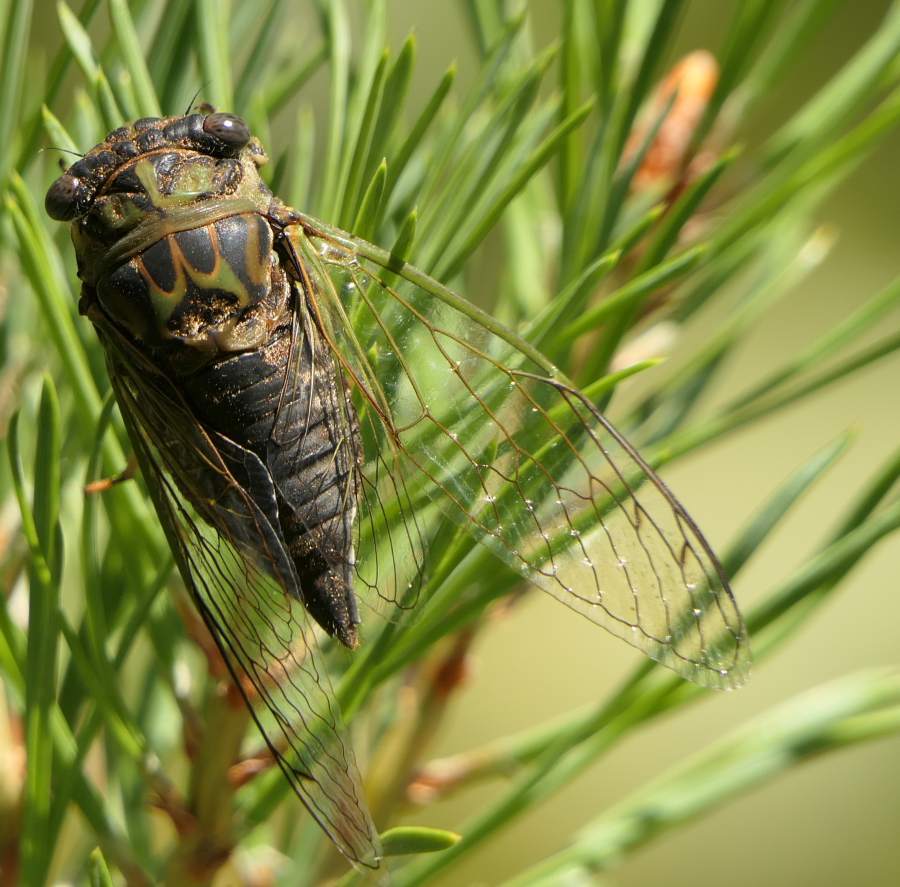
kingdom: Animalia
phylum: Arthropoda
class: Insecta
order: Hemiptera
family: Cicadidae
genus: Neotibicen
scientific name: Neotibicen canicularis
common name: God-day cicada
